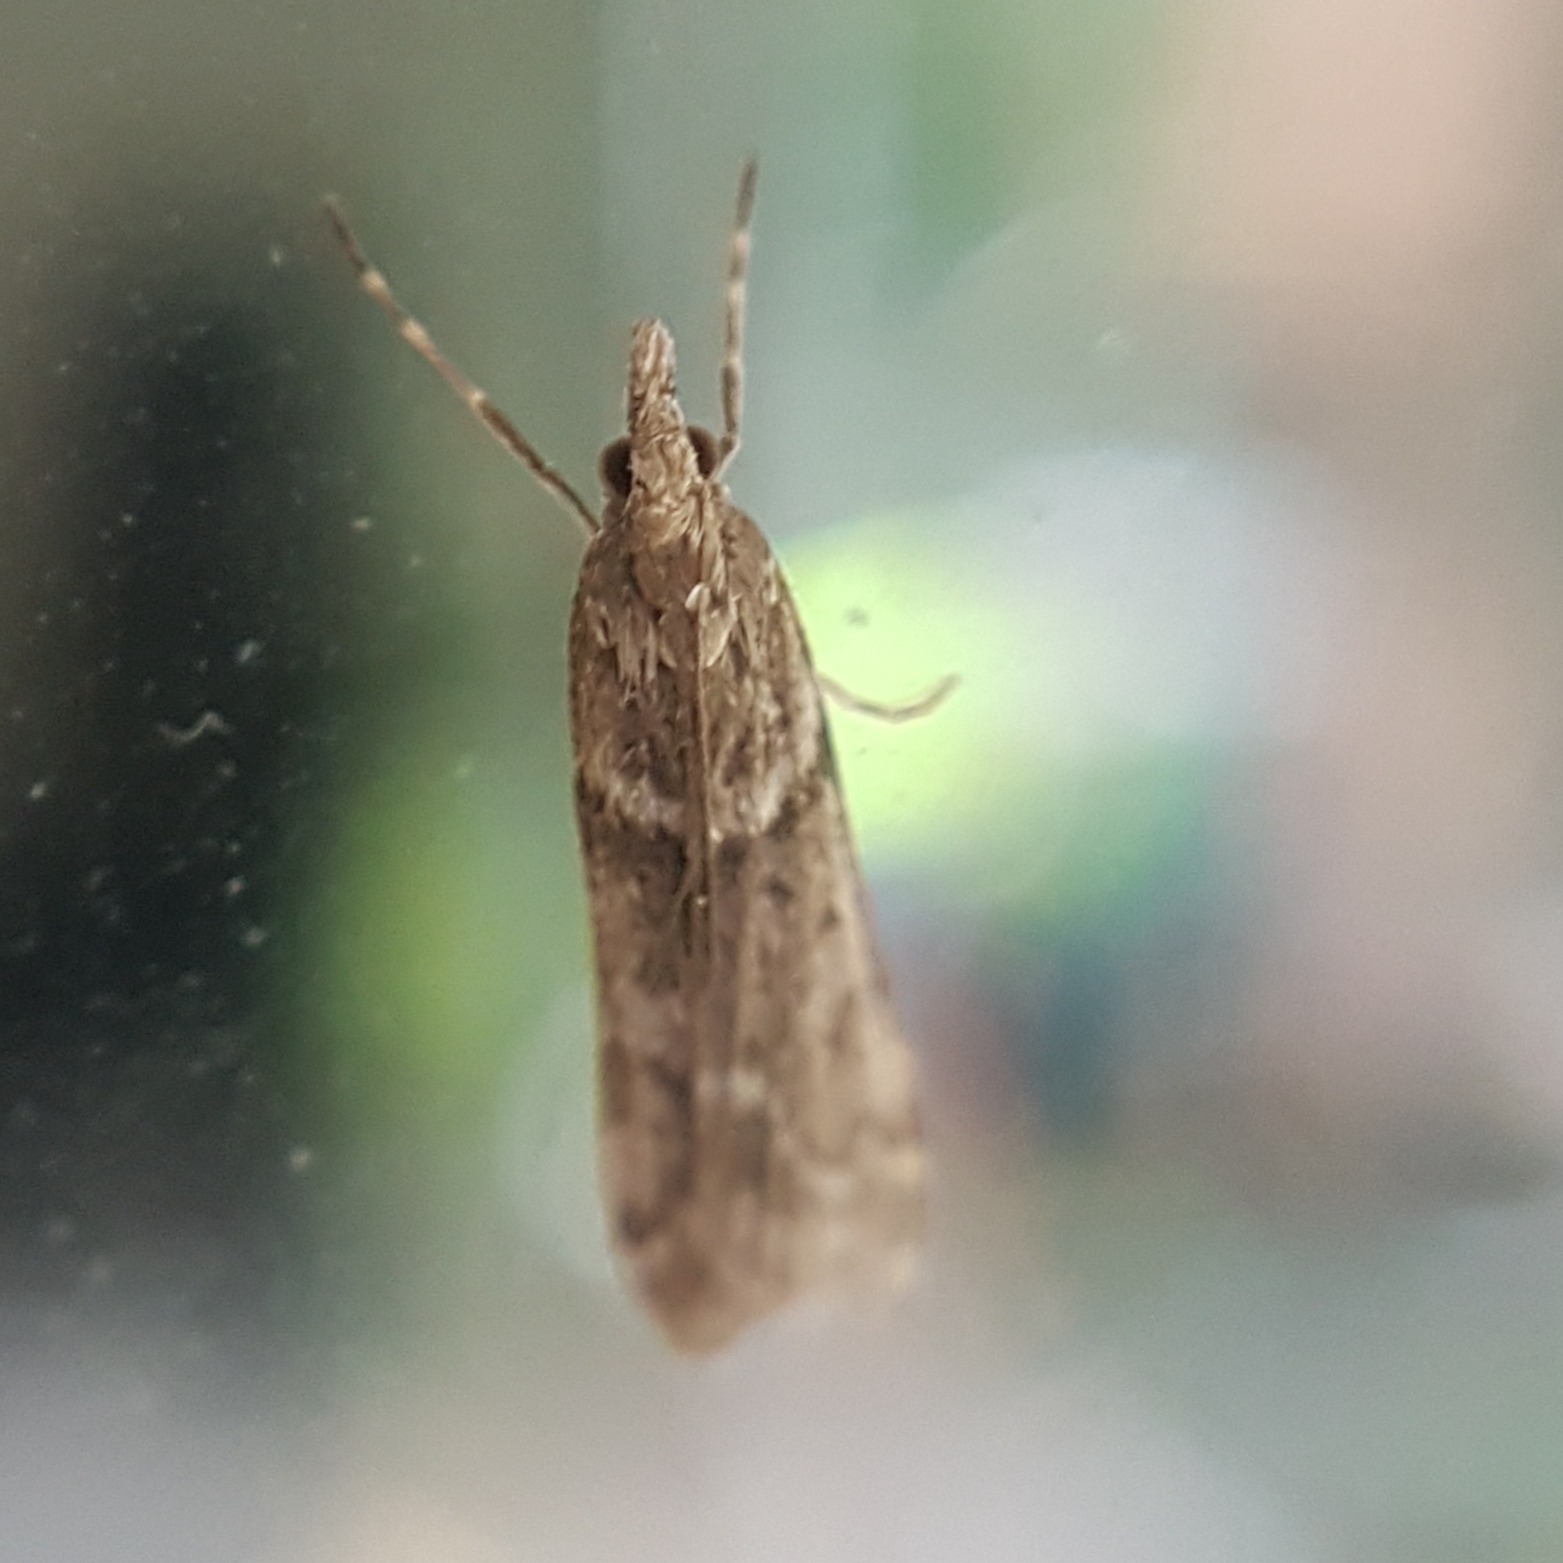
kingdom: Animalia
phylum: Arthropoda
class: Insecta
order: Lepidoptera
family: Crambidae
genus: Eudonia
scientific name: Eudonia angustea
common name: Narrow-winged grey
